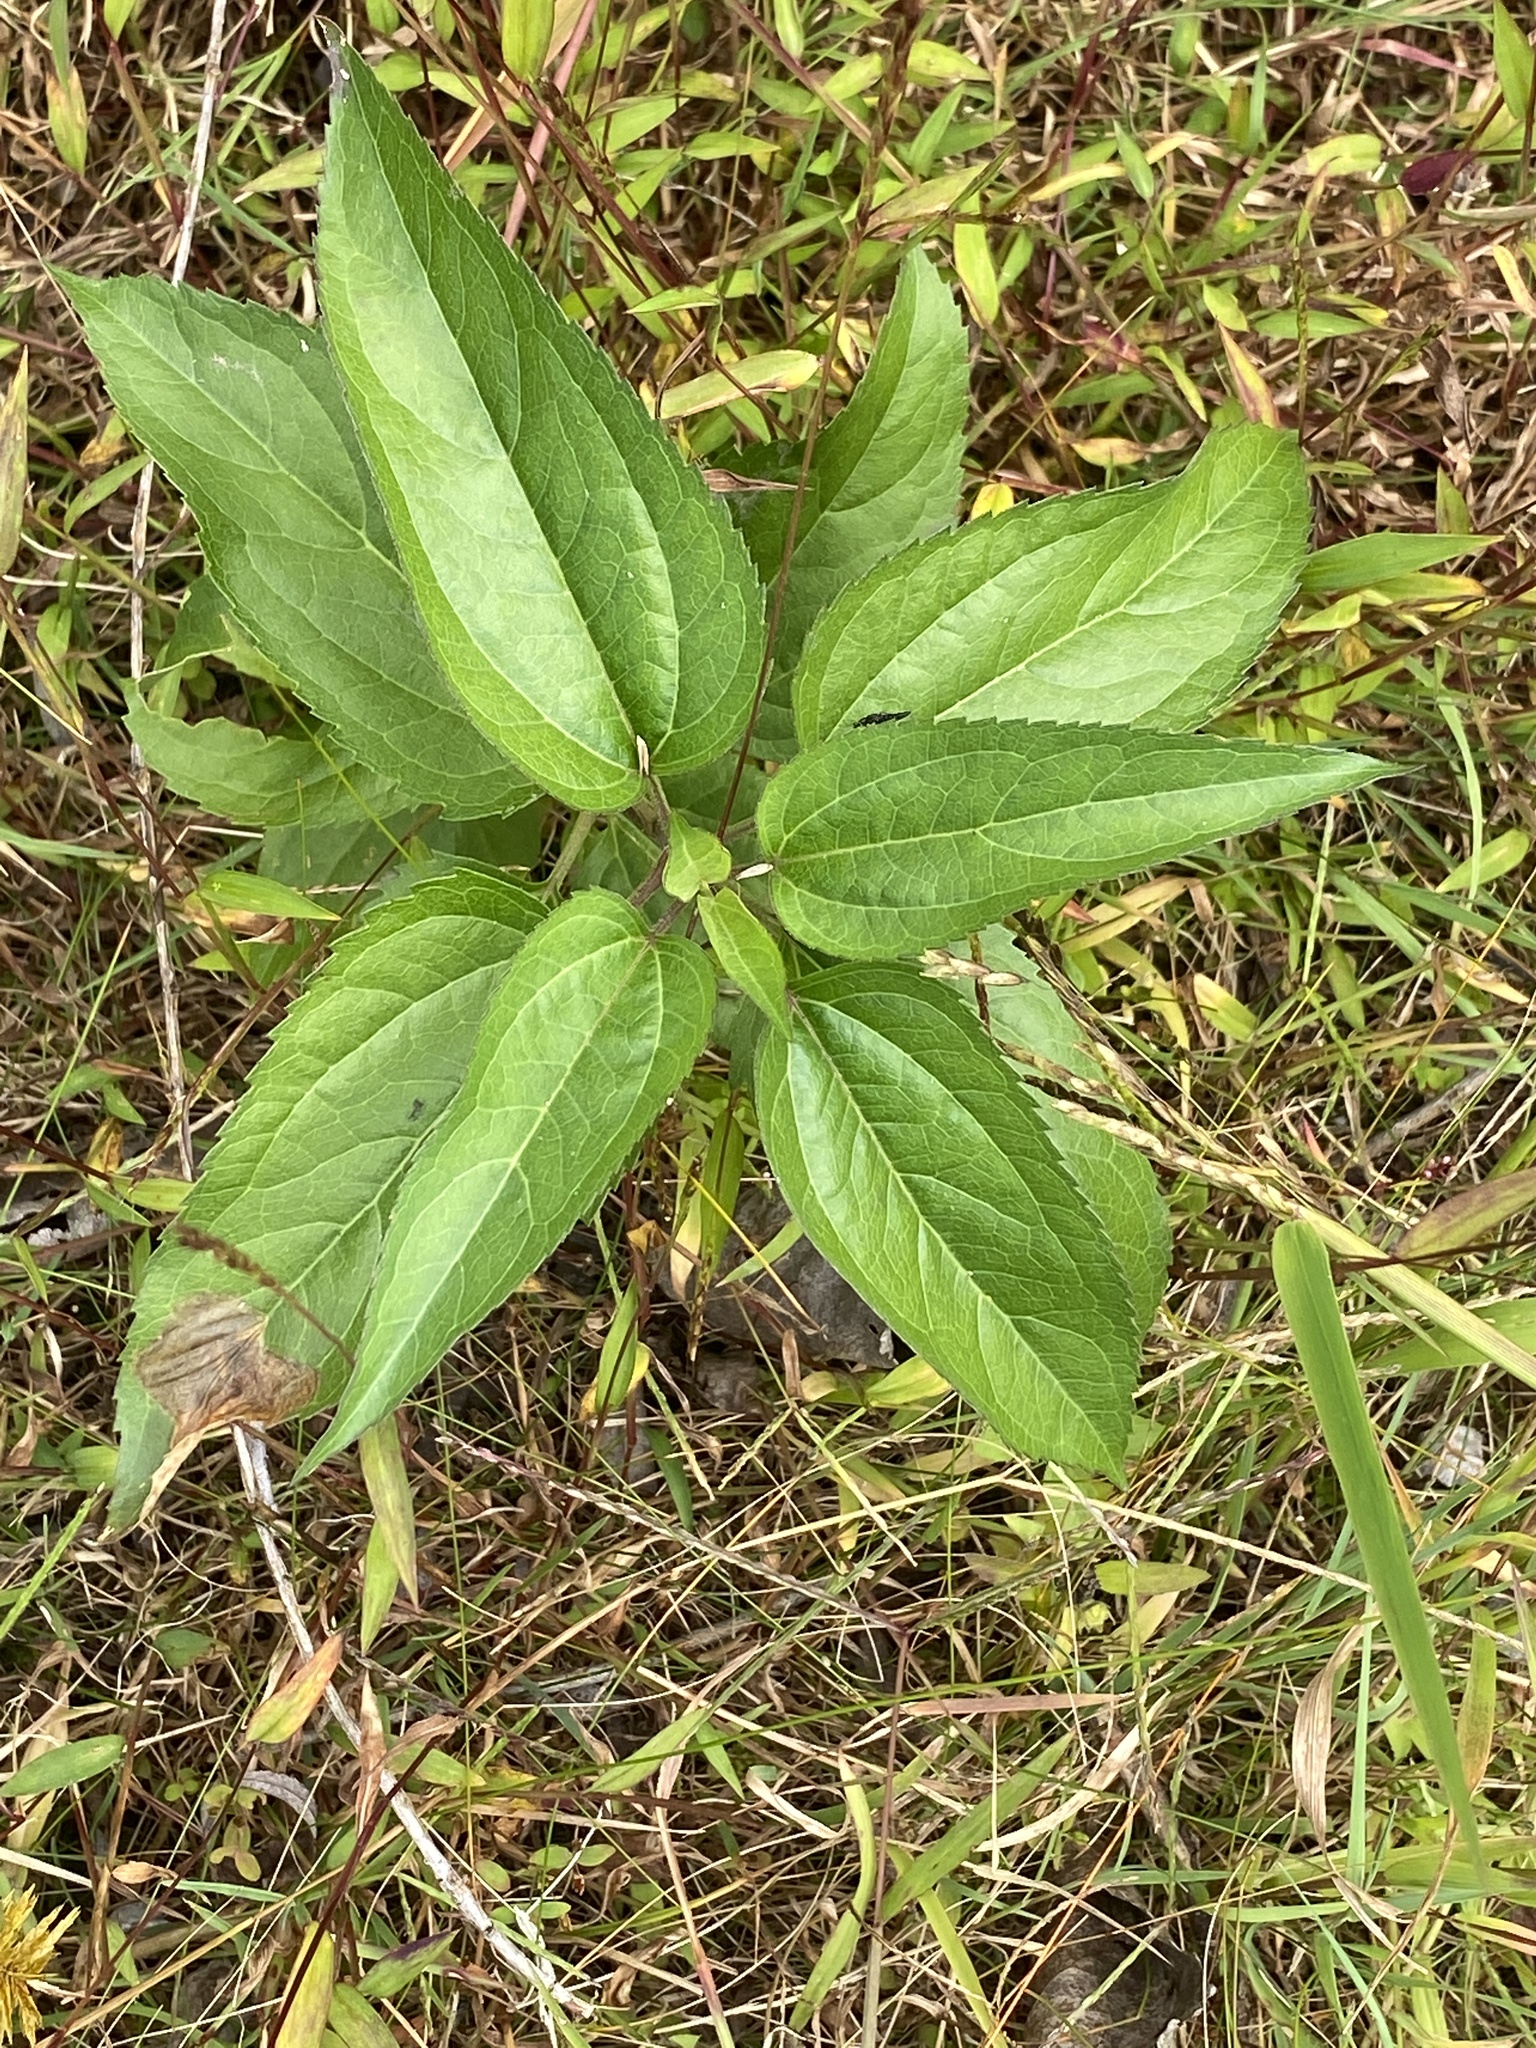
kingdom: Plantae
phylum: Tracheophyta
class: Magnoliopsida
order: Asterales
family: Asteraceae
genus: Eupatorium
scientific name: Eupatorium serotinum
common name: Late boneset
